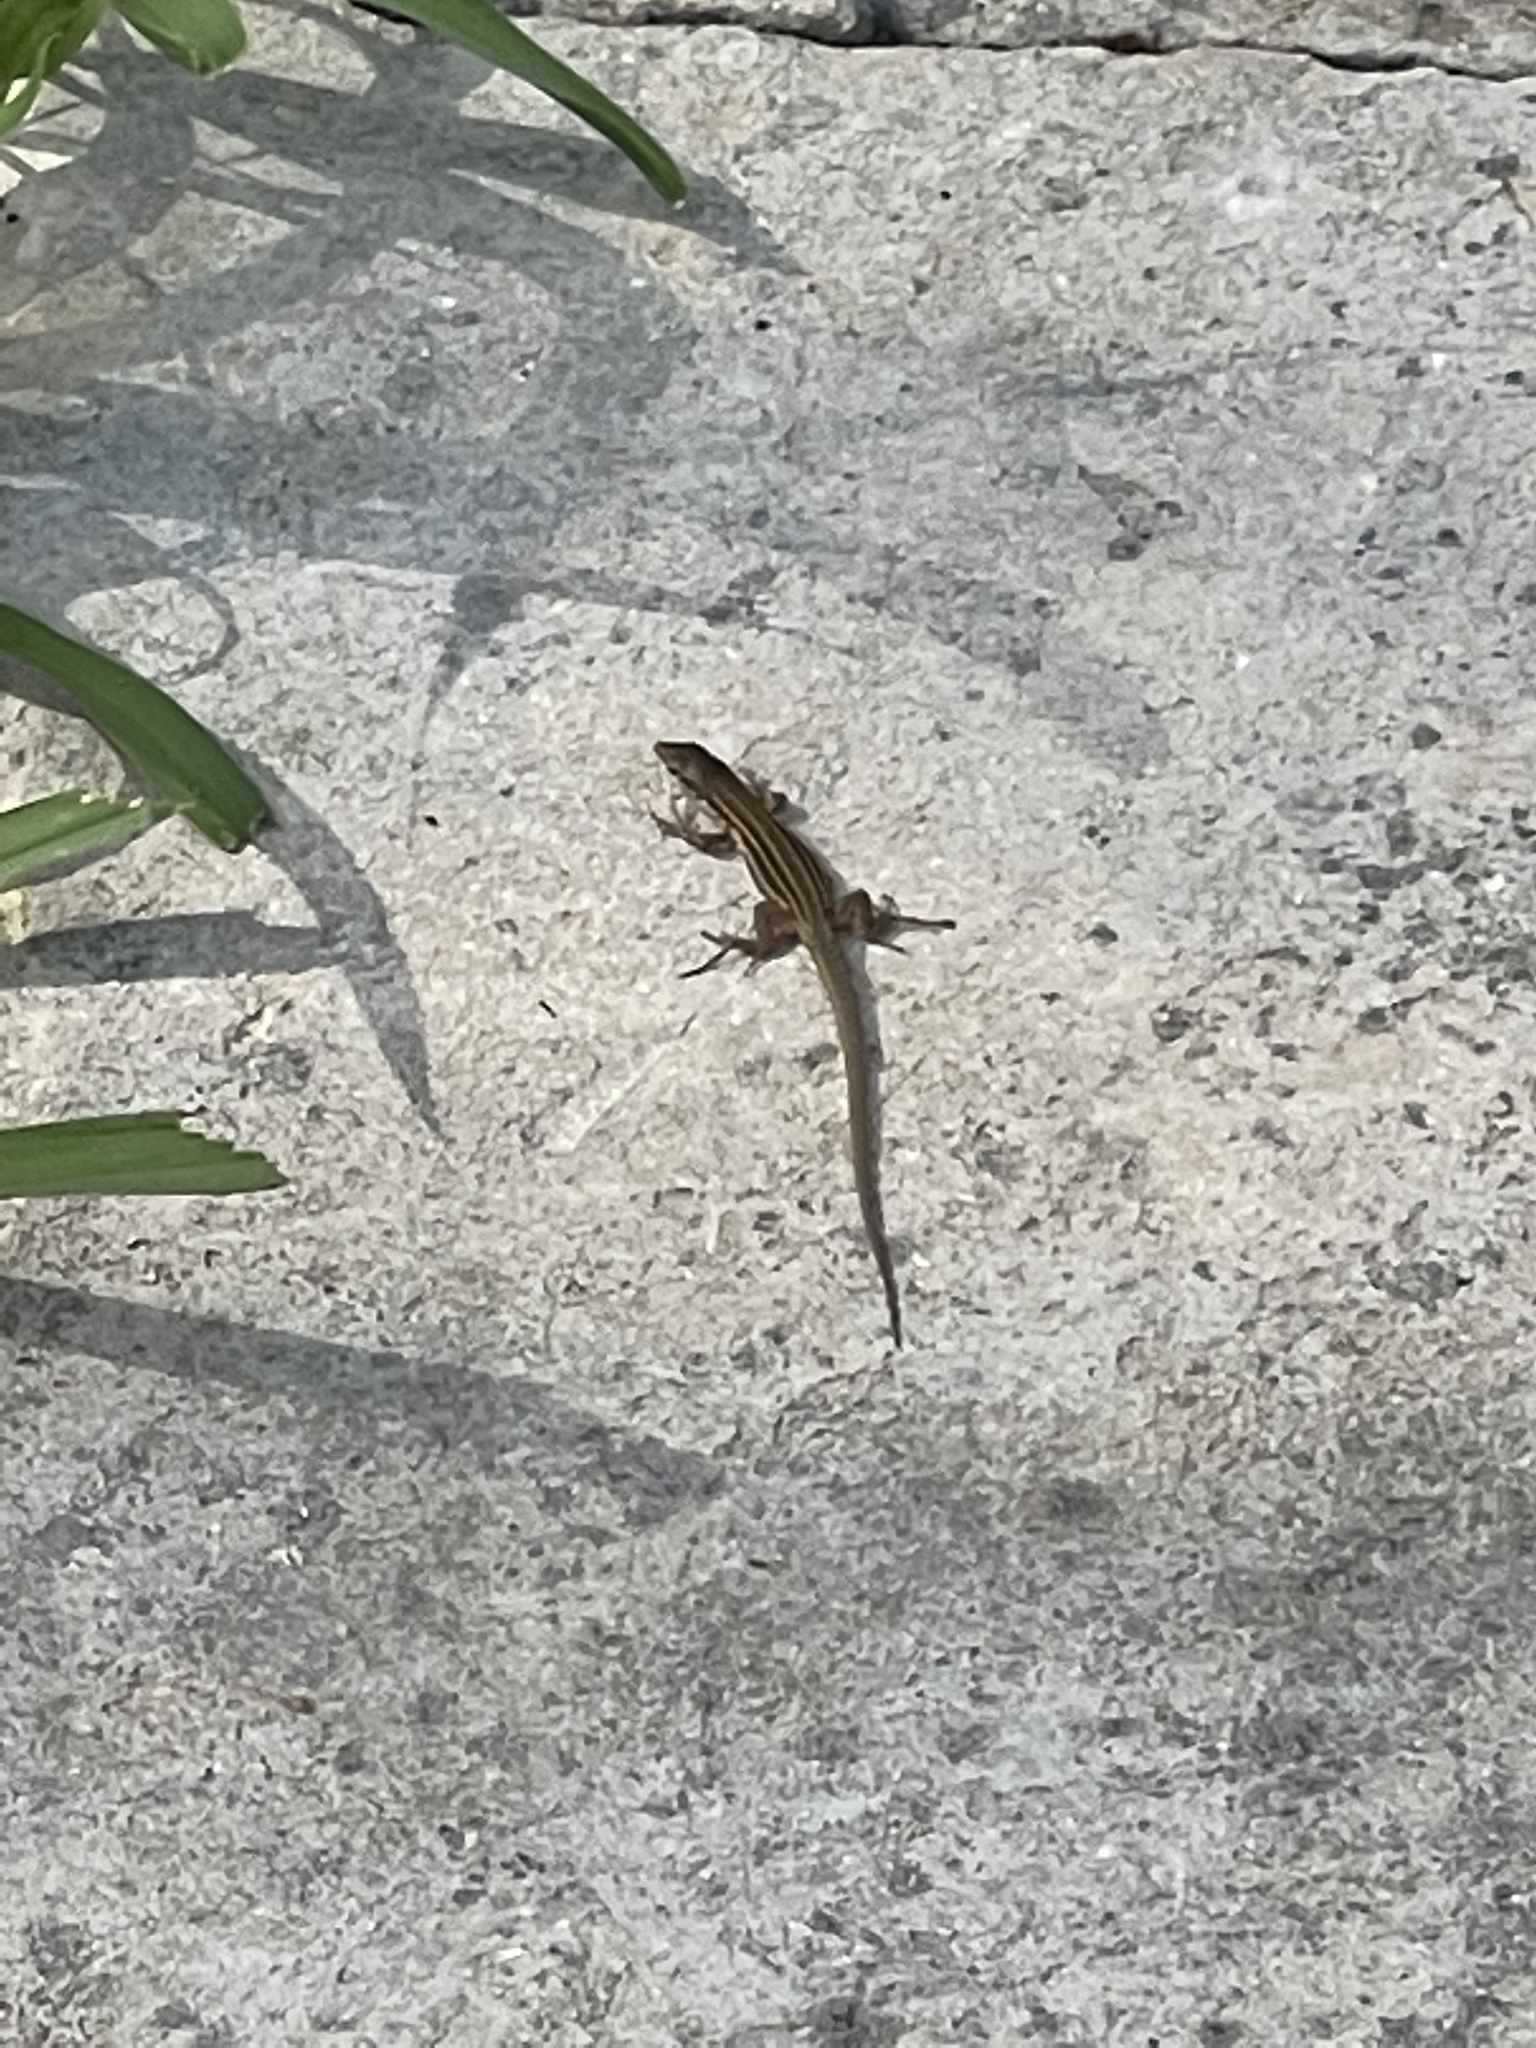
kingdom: Animalia
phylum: Chordata
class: Squamata
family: Lacertidae
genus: Podarcis
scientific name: Podarcis siculus
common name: Italian wall lizard
